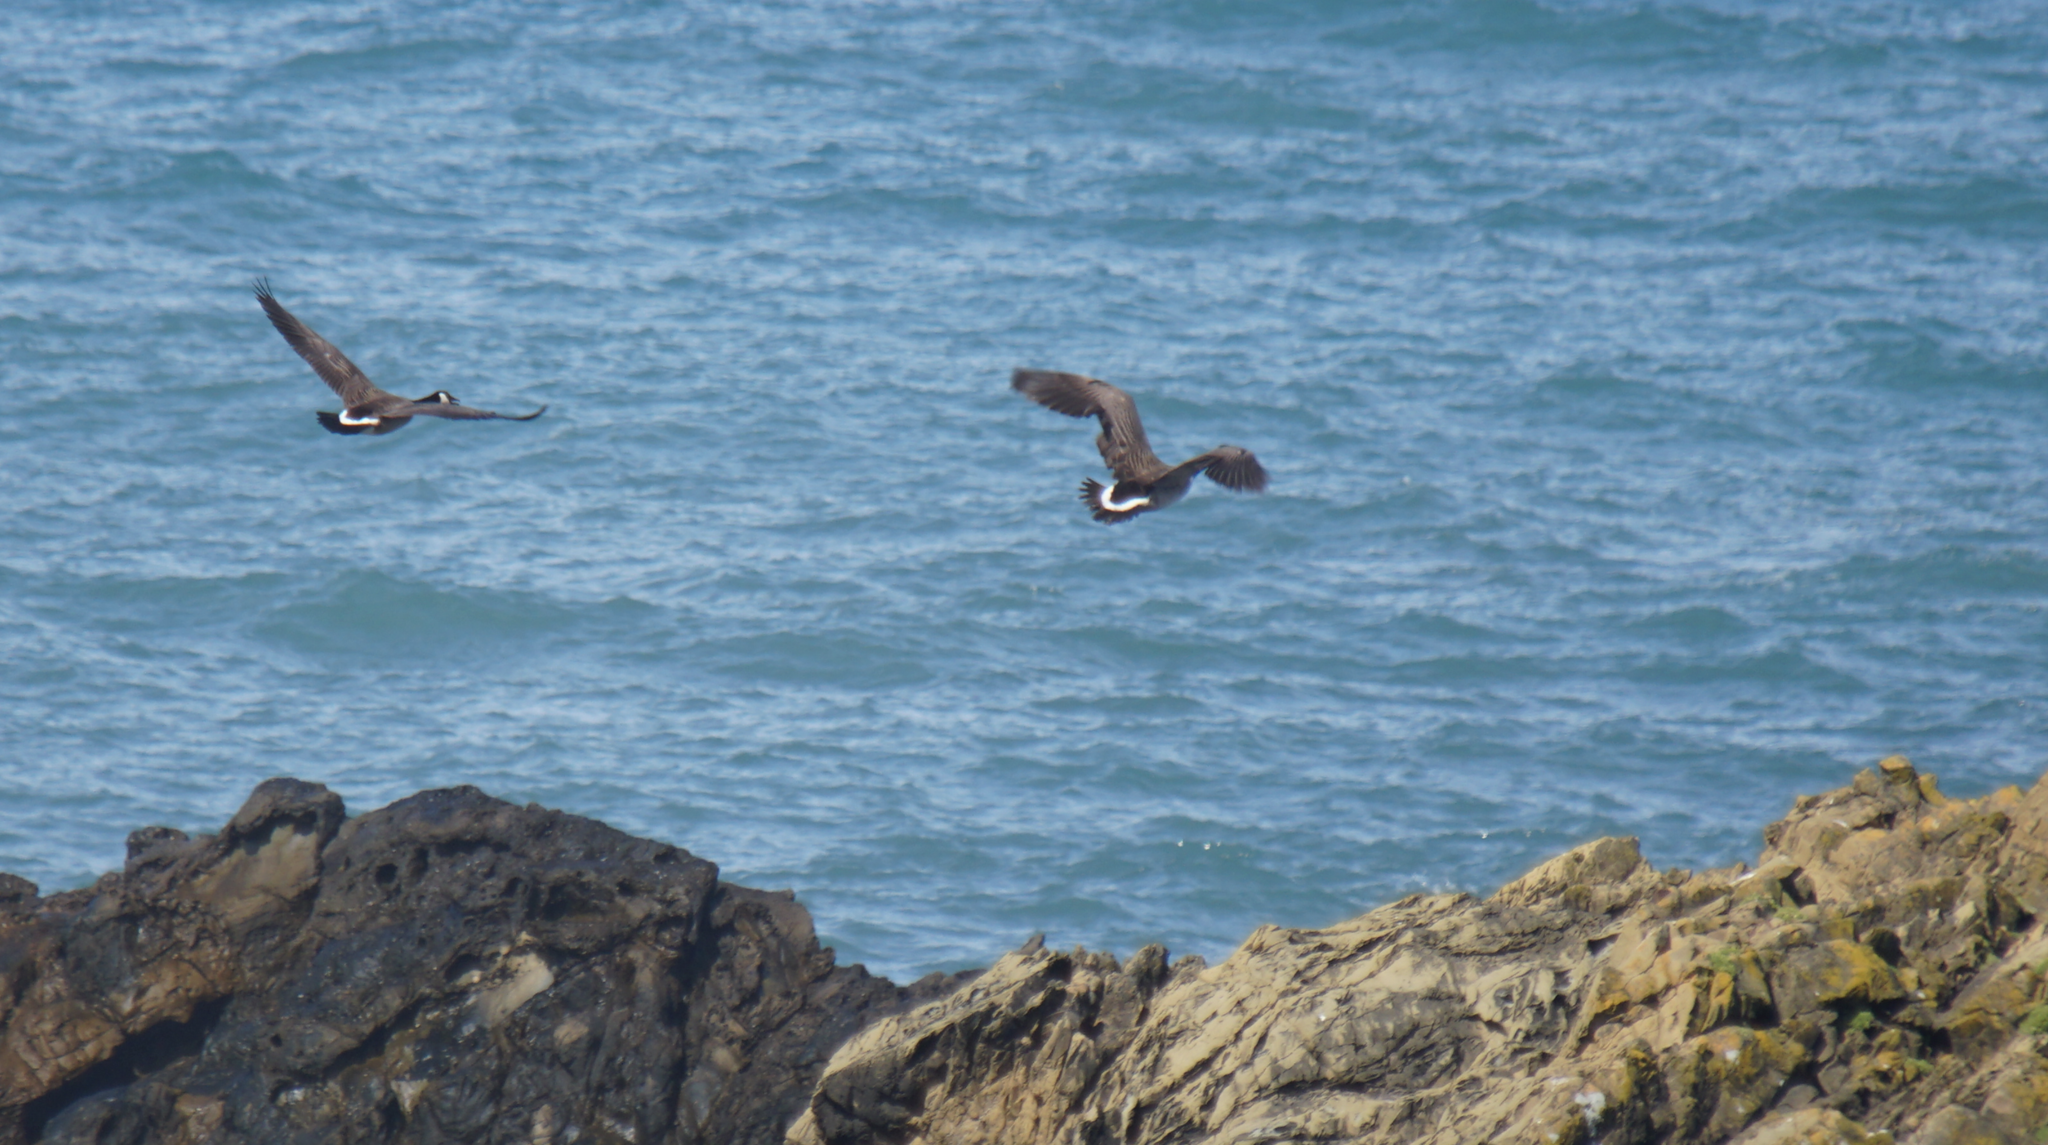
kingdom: Animalia
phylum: Chordata
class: Aves
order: Anseriformes
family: Anatidae
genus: Branta
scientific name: Branta canadensis
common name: Canada goose
